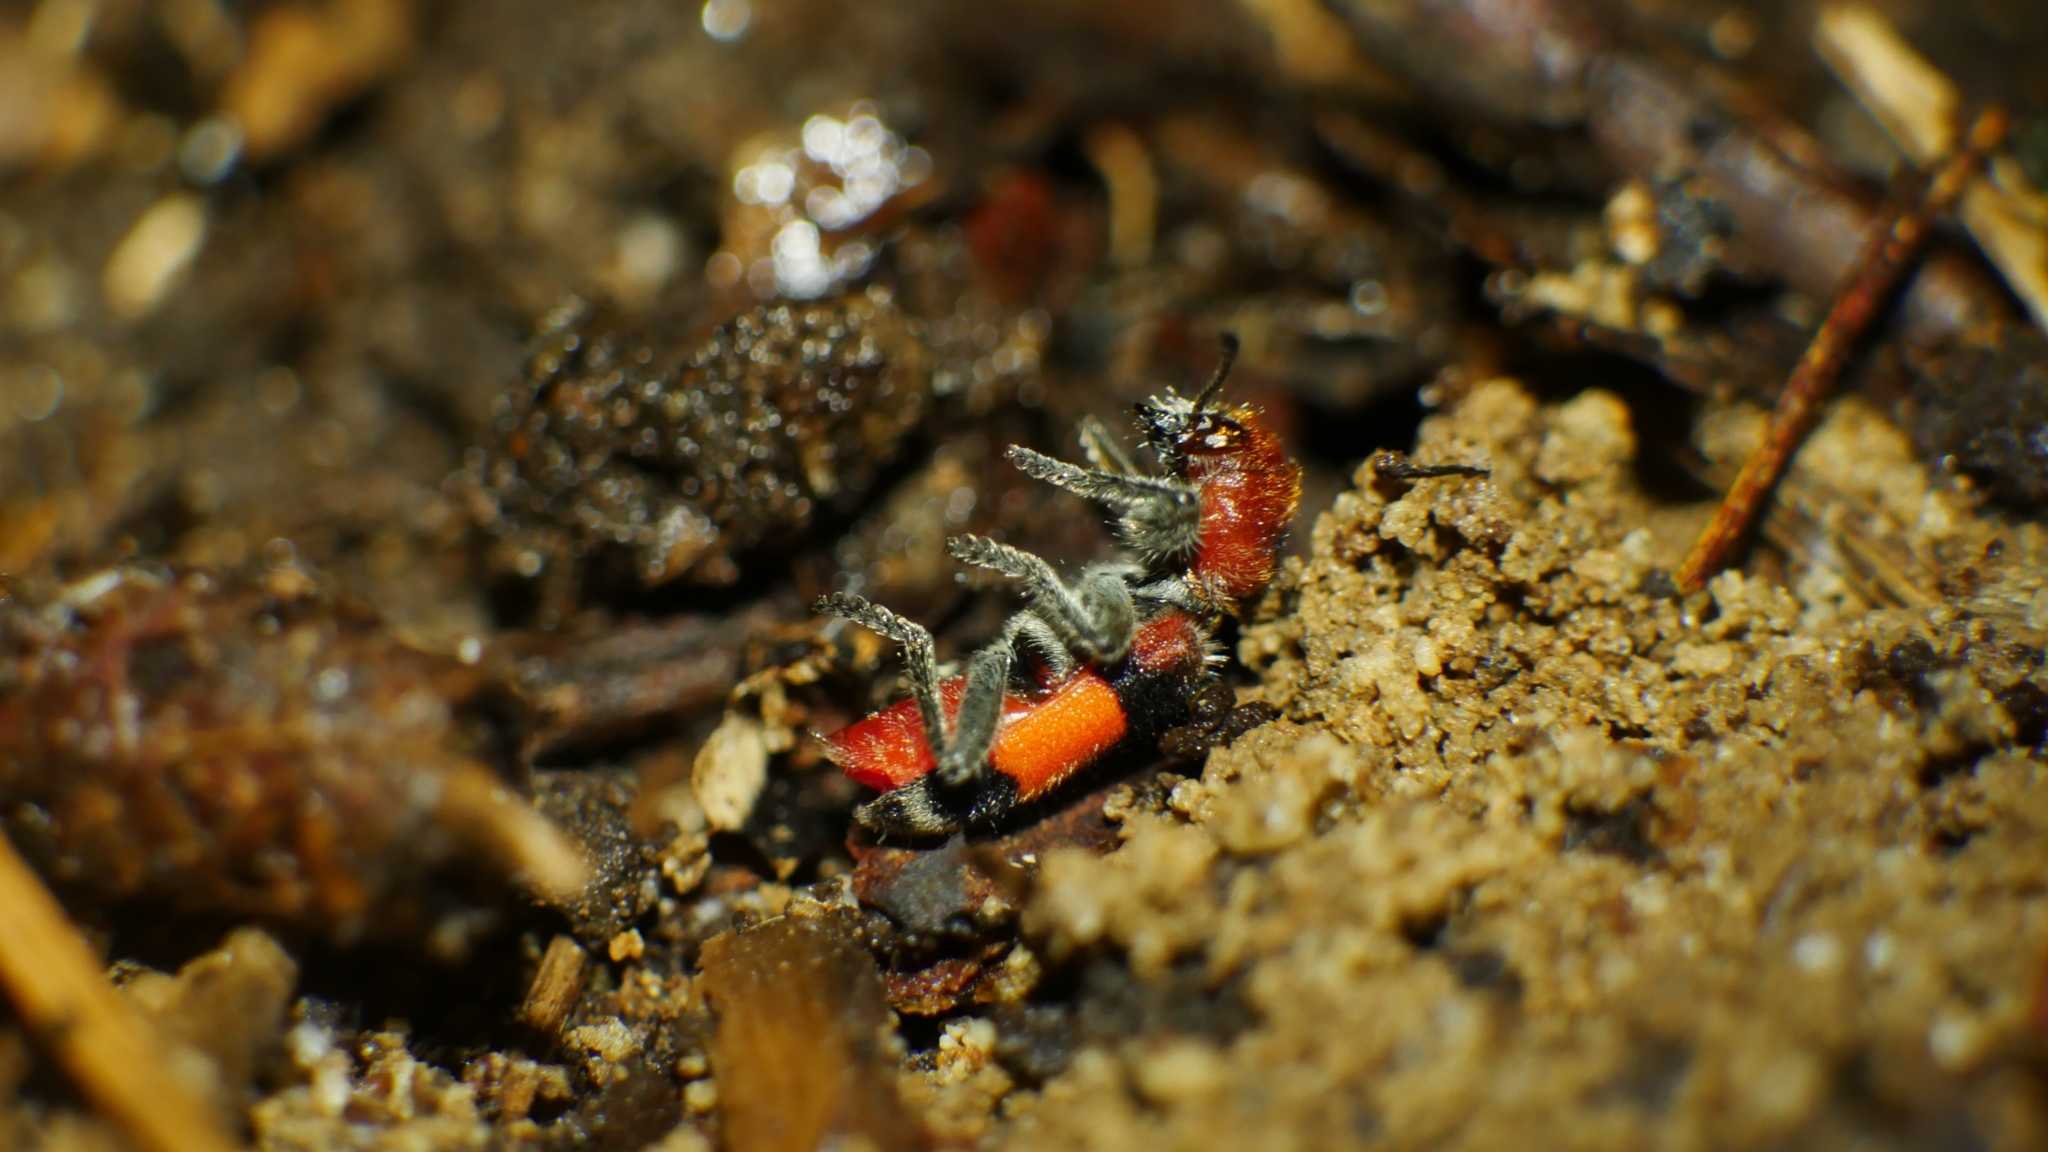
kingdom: Animalia
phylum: Arthropoda
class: Insecta
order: Coleoptera
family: Cleridae
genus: Enoclerus
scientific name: Enoclerus ichneumoneus
